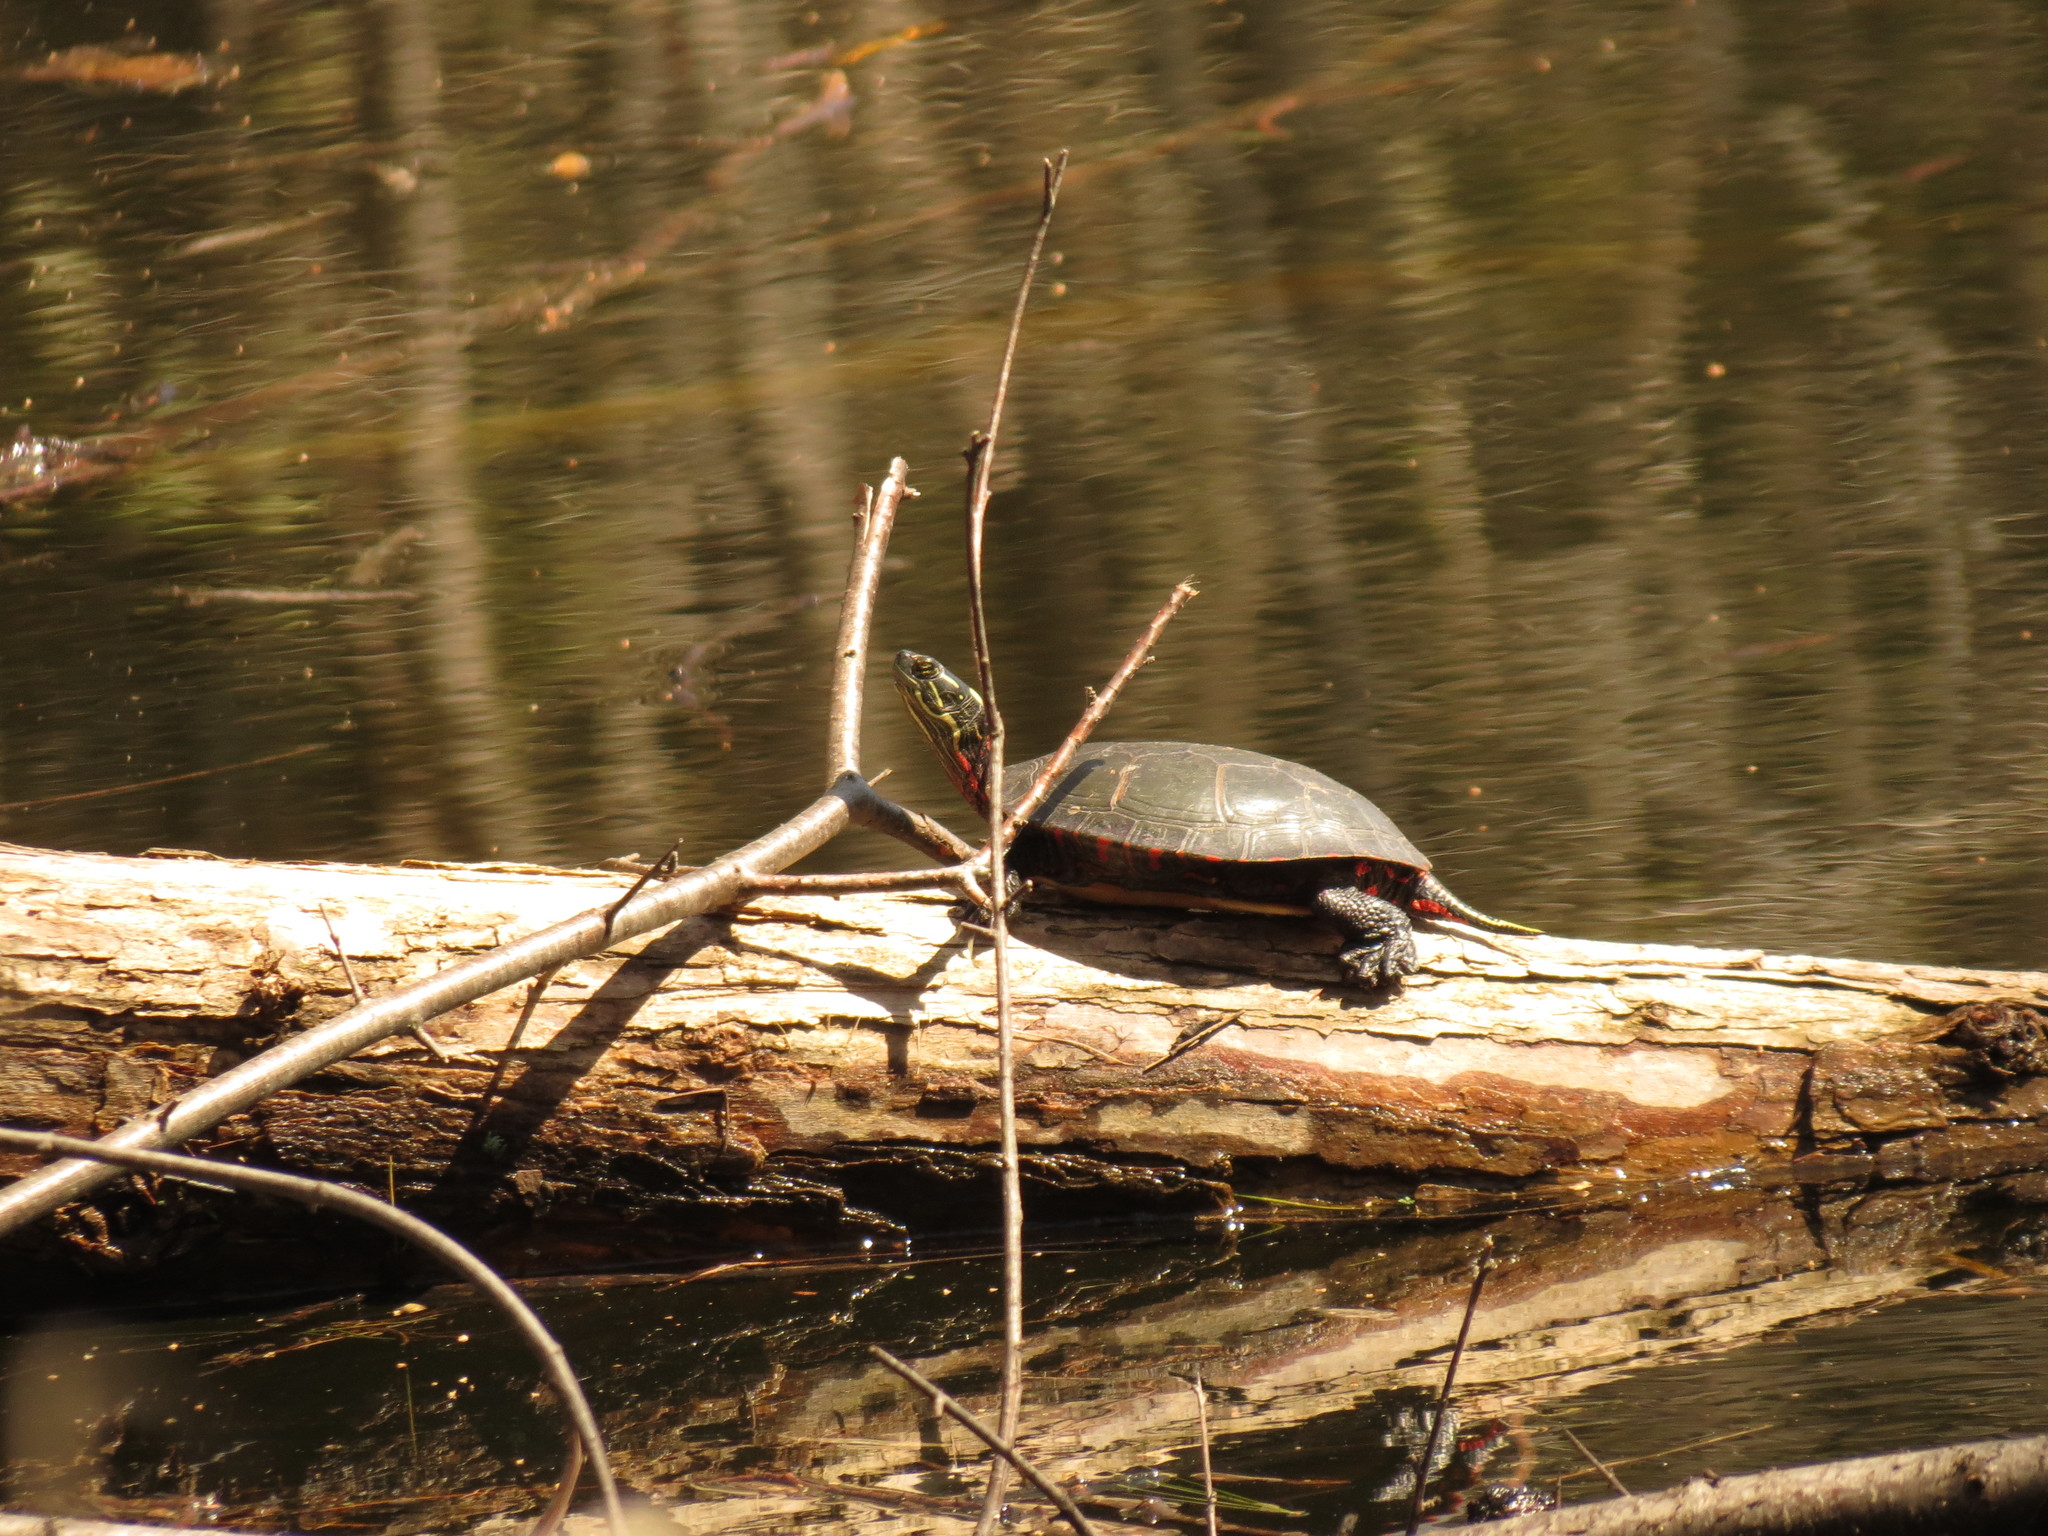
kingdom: Animalia
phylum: Chordata
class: Testudines
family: Emydidae
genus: Chrysemys
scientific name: Chrysemys picta
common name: Painted turtle
